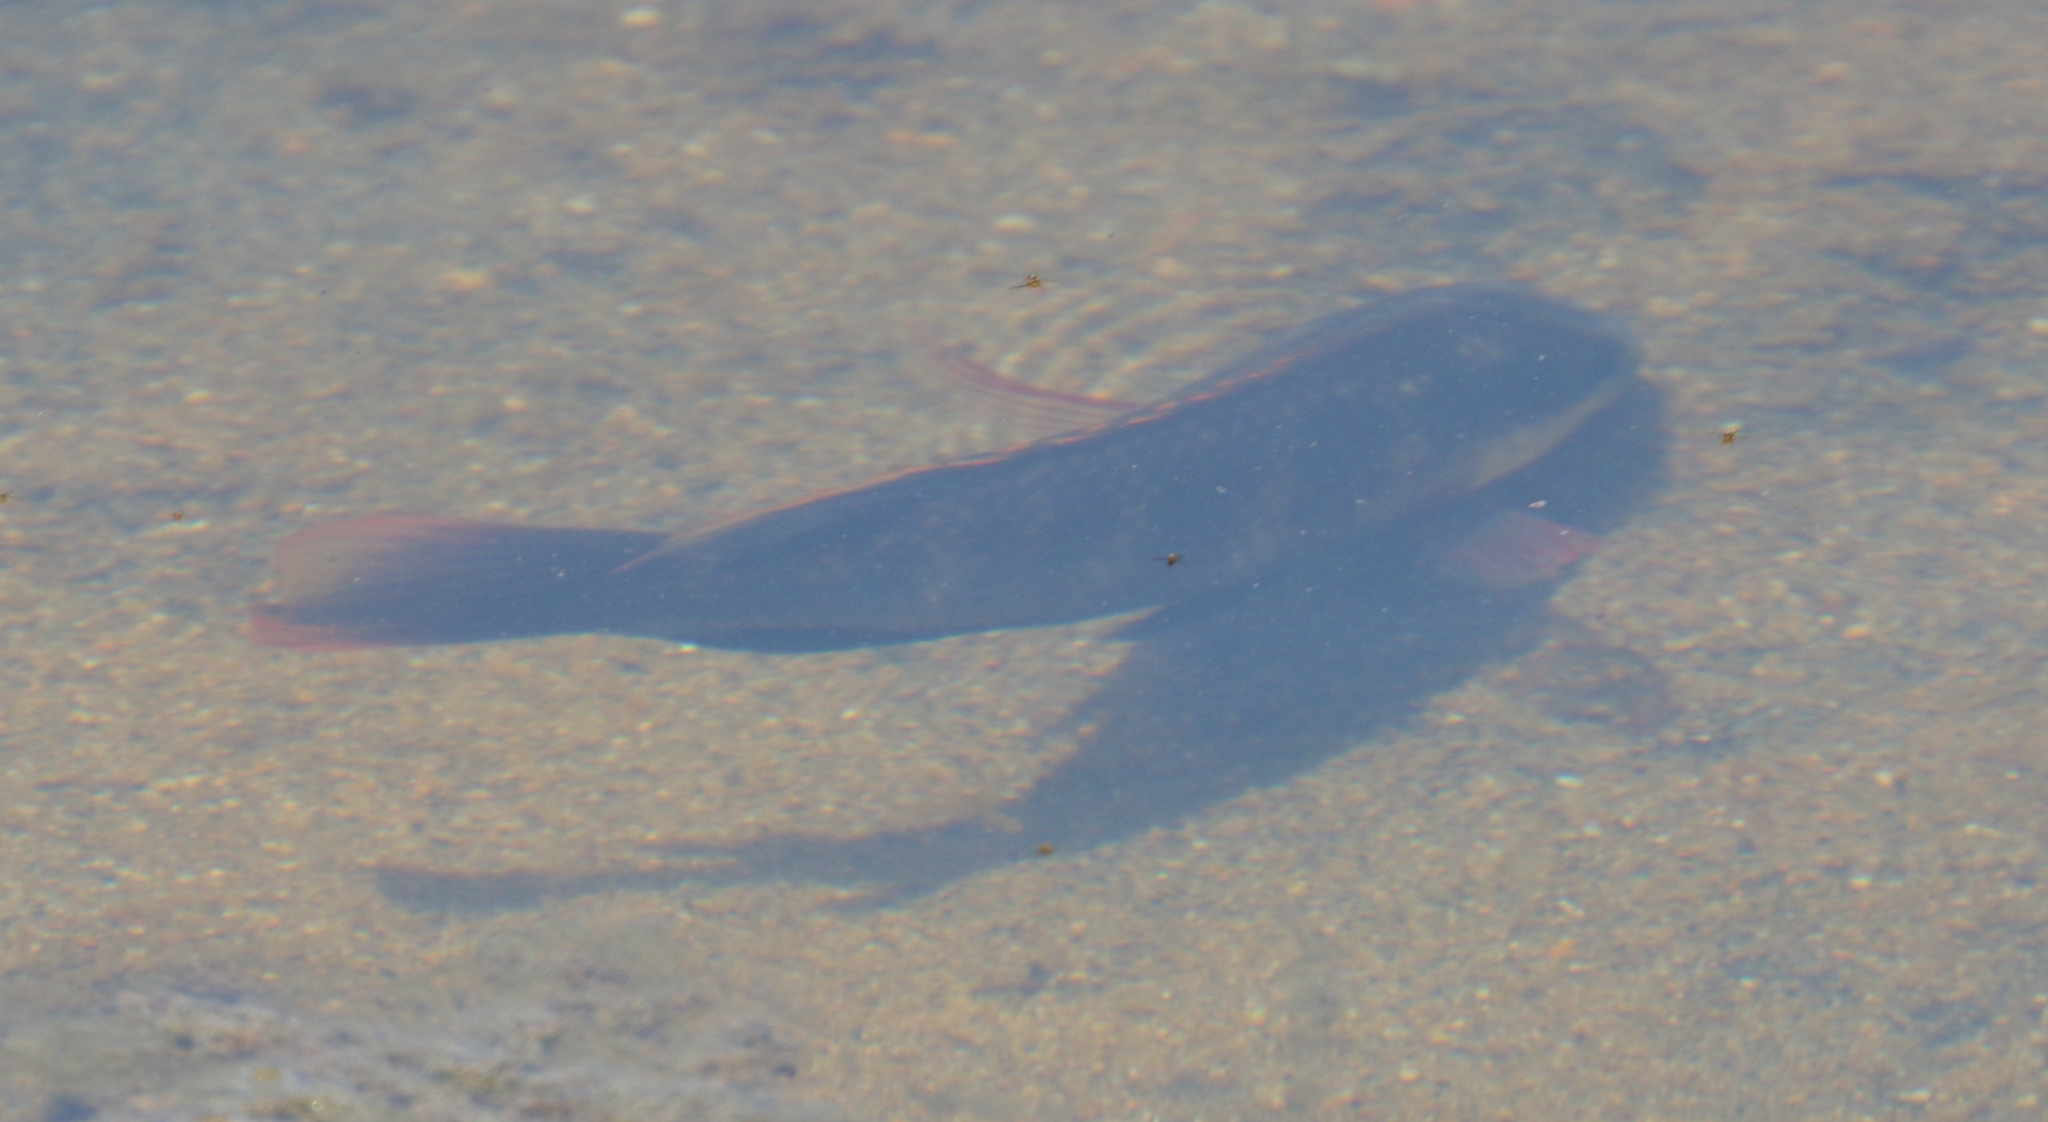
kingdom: Animalia
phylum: Chordata
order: Perciformes
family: Cichlidae
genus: Oreochromis
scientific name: Oreochromis mossambicus
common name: Mozambique tilapia
